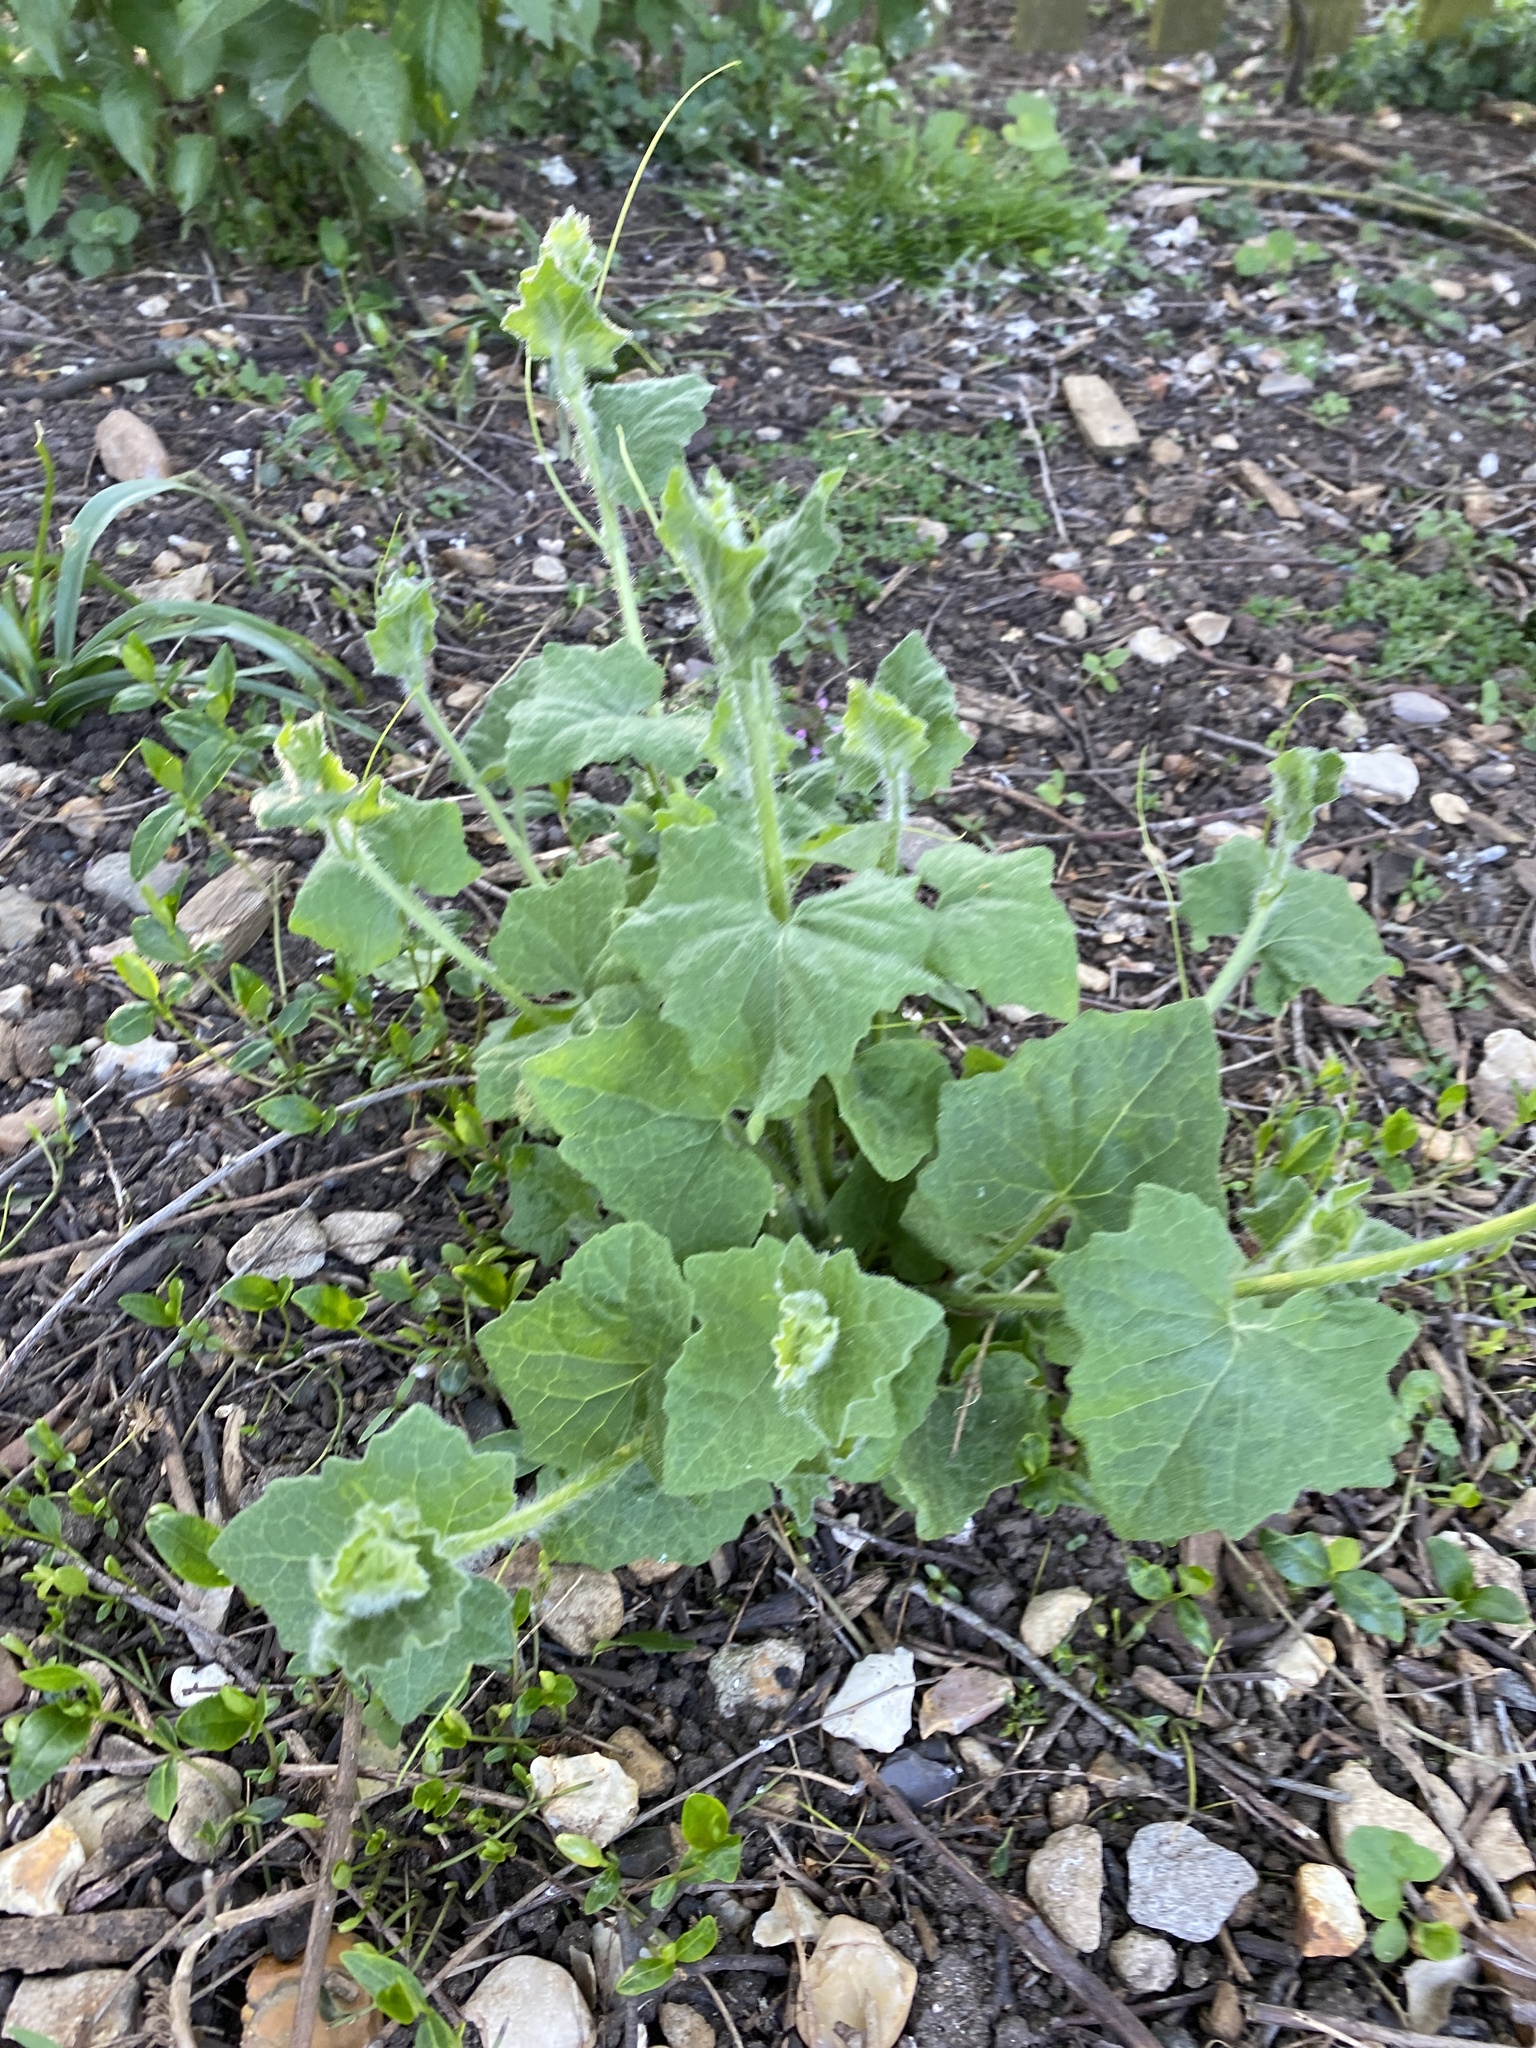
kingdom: Plantae
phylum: Tracheophyta
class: Magnoliopsida
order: Cucurbitales
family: Cucurbitaceae
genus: Bryonia
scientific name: Bryonia dioica
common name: White bryony
